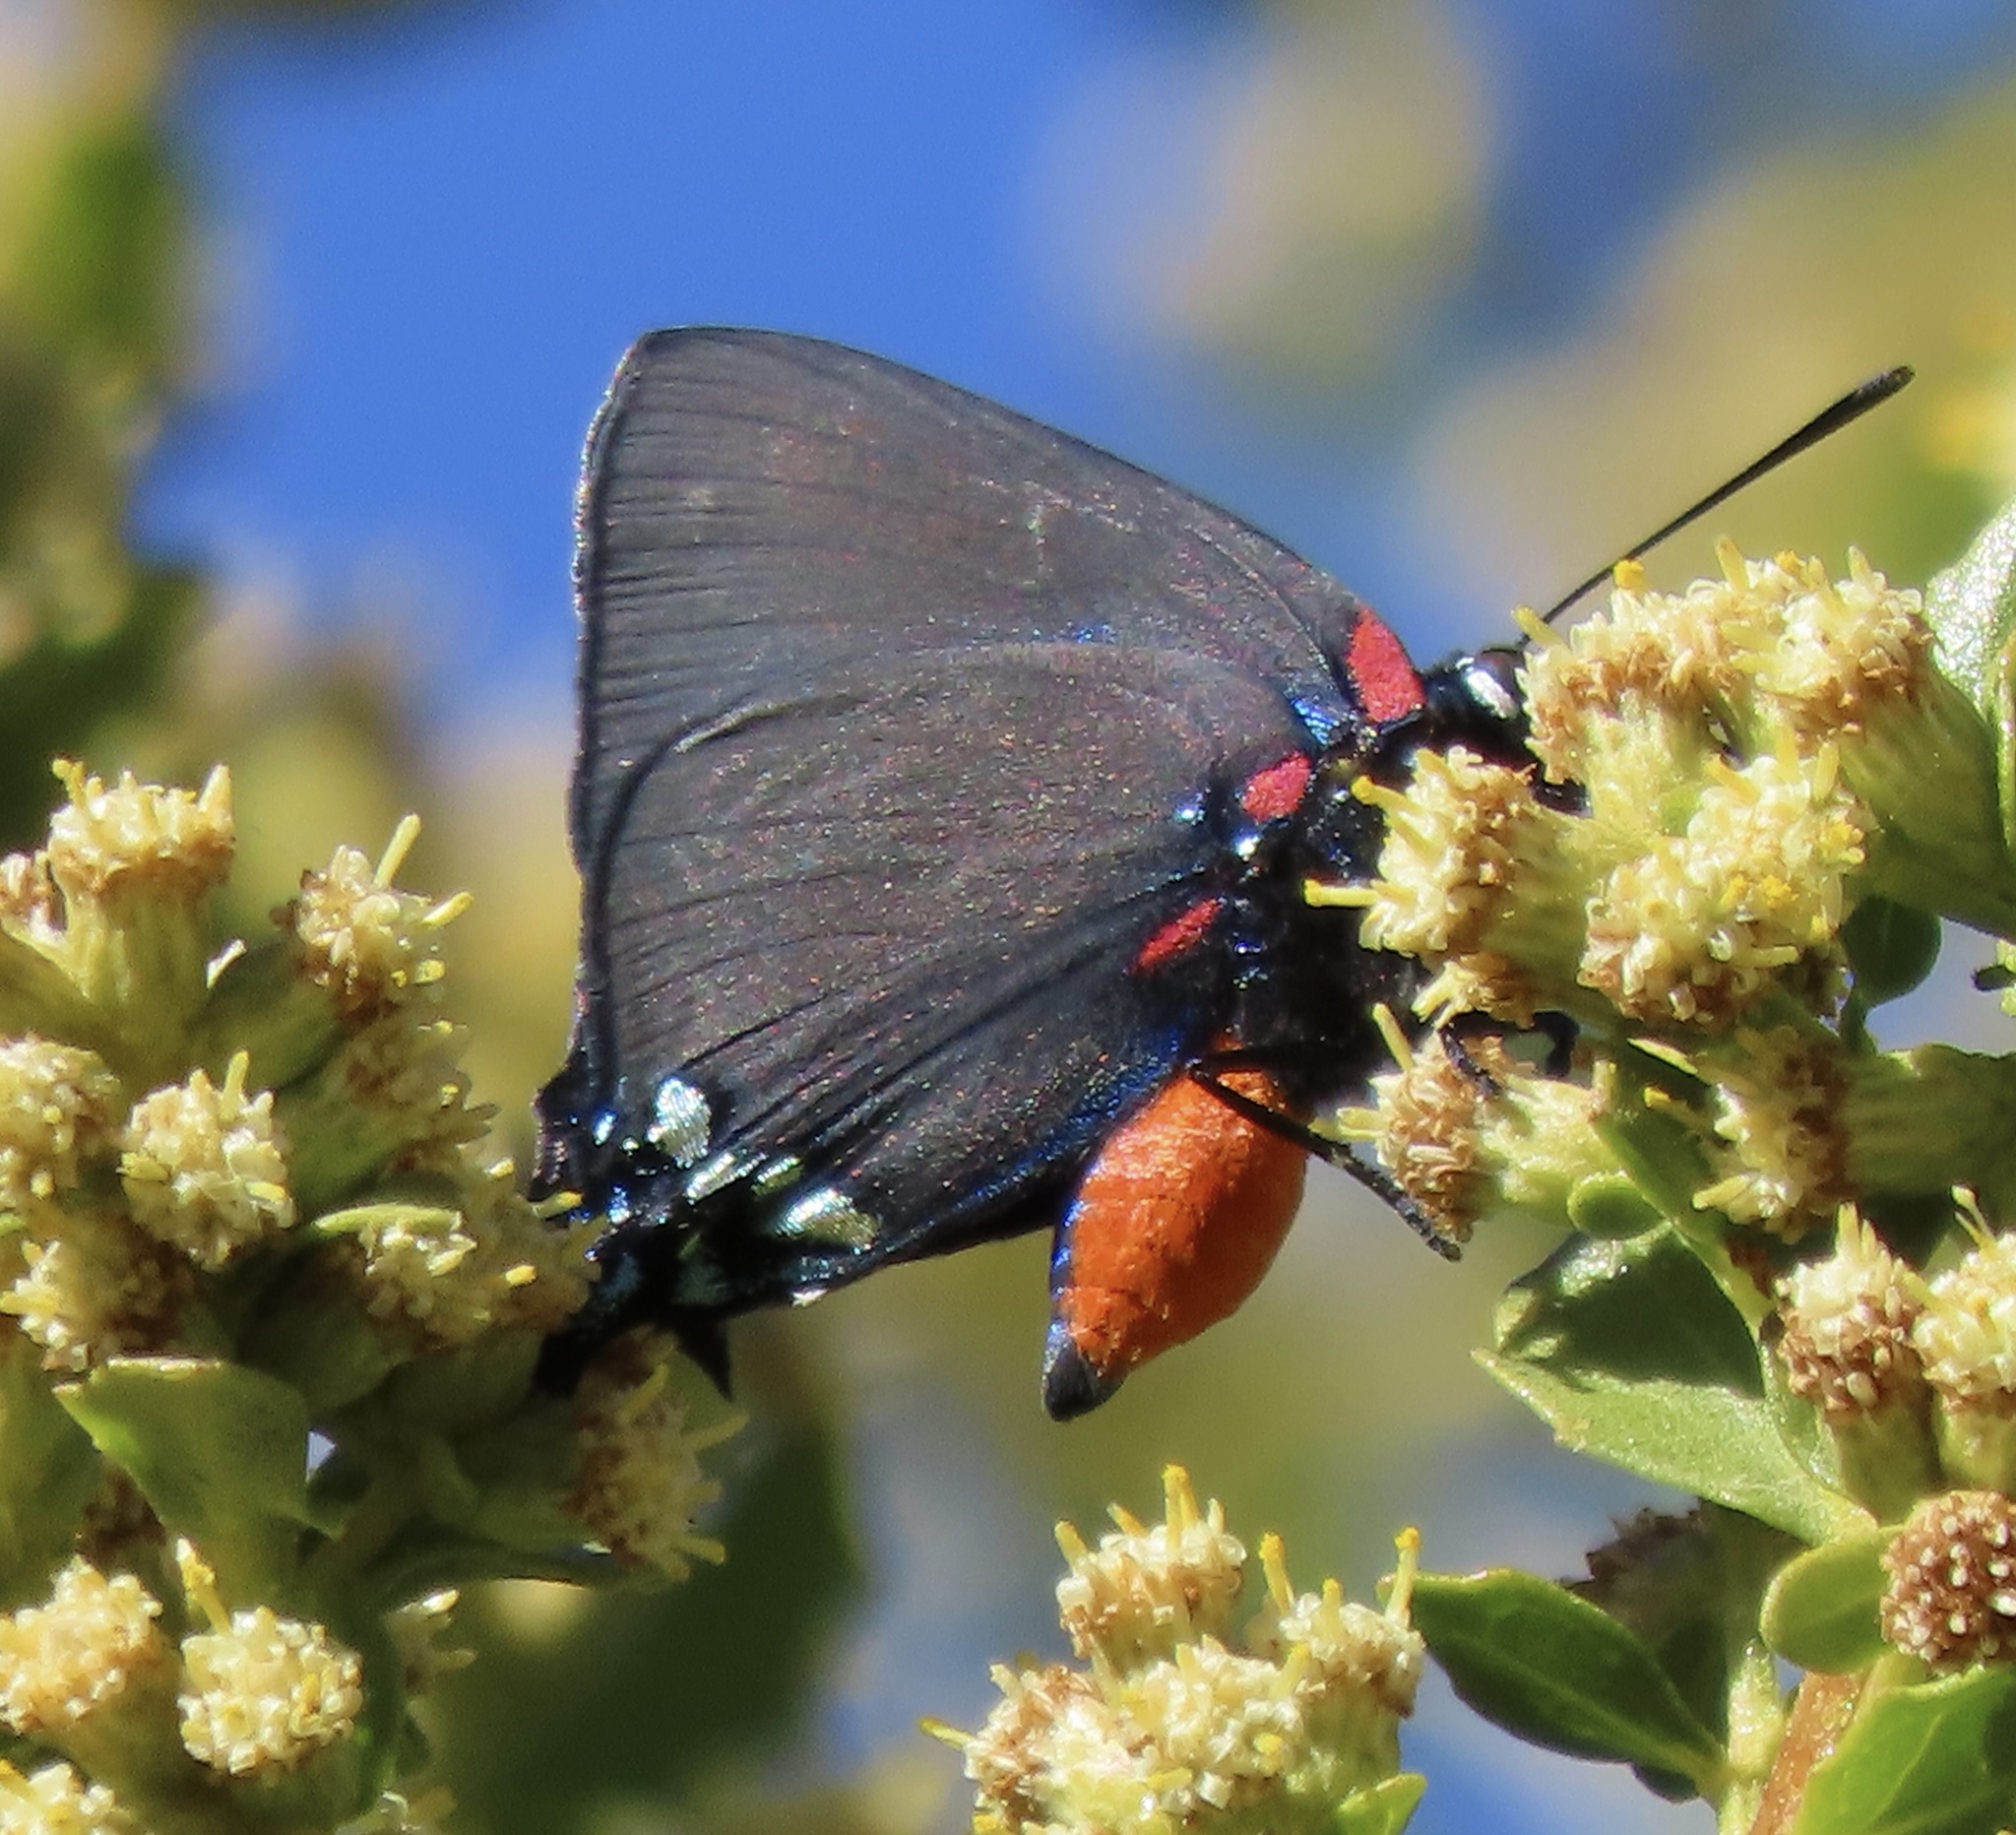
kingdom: Animalia
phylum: Arthropoda
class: Insecta
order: Lepidoptera
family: Lycaenidae
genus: Atlides
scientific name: Atlides halesus
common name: Great purple hairstreak
